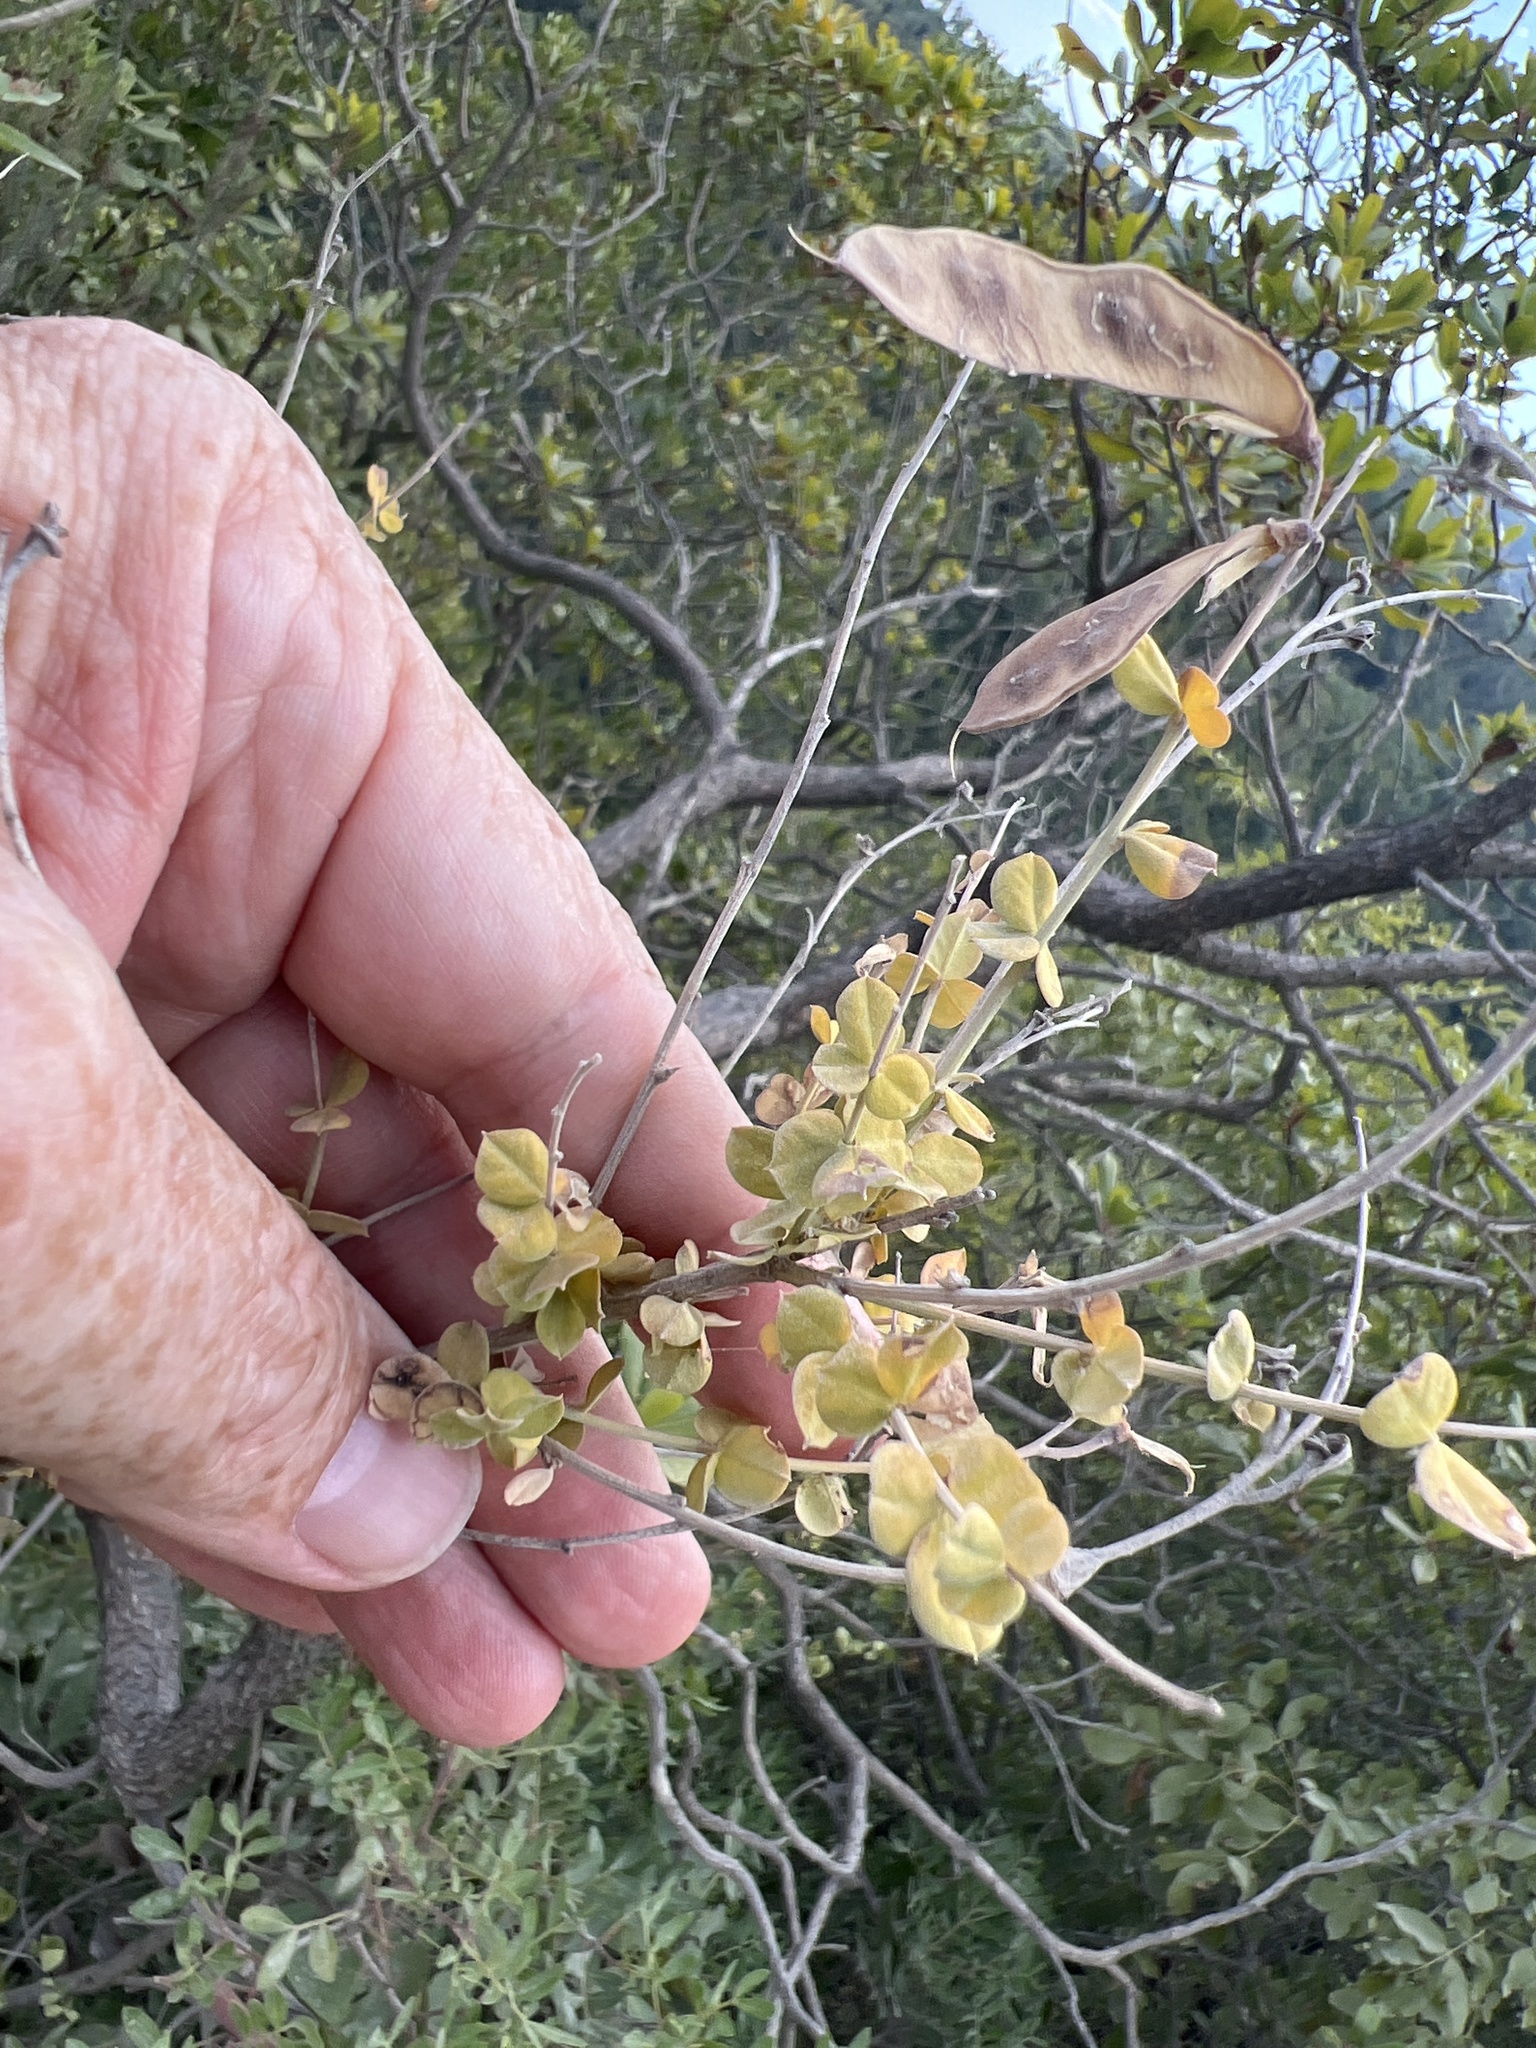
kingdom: Plantae
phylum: Tracheophyta
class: Magnoliopsida
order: Fabales
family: Fabaceae
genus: Cytisophyllum
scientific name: Cytisophyllum sessilifolium
